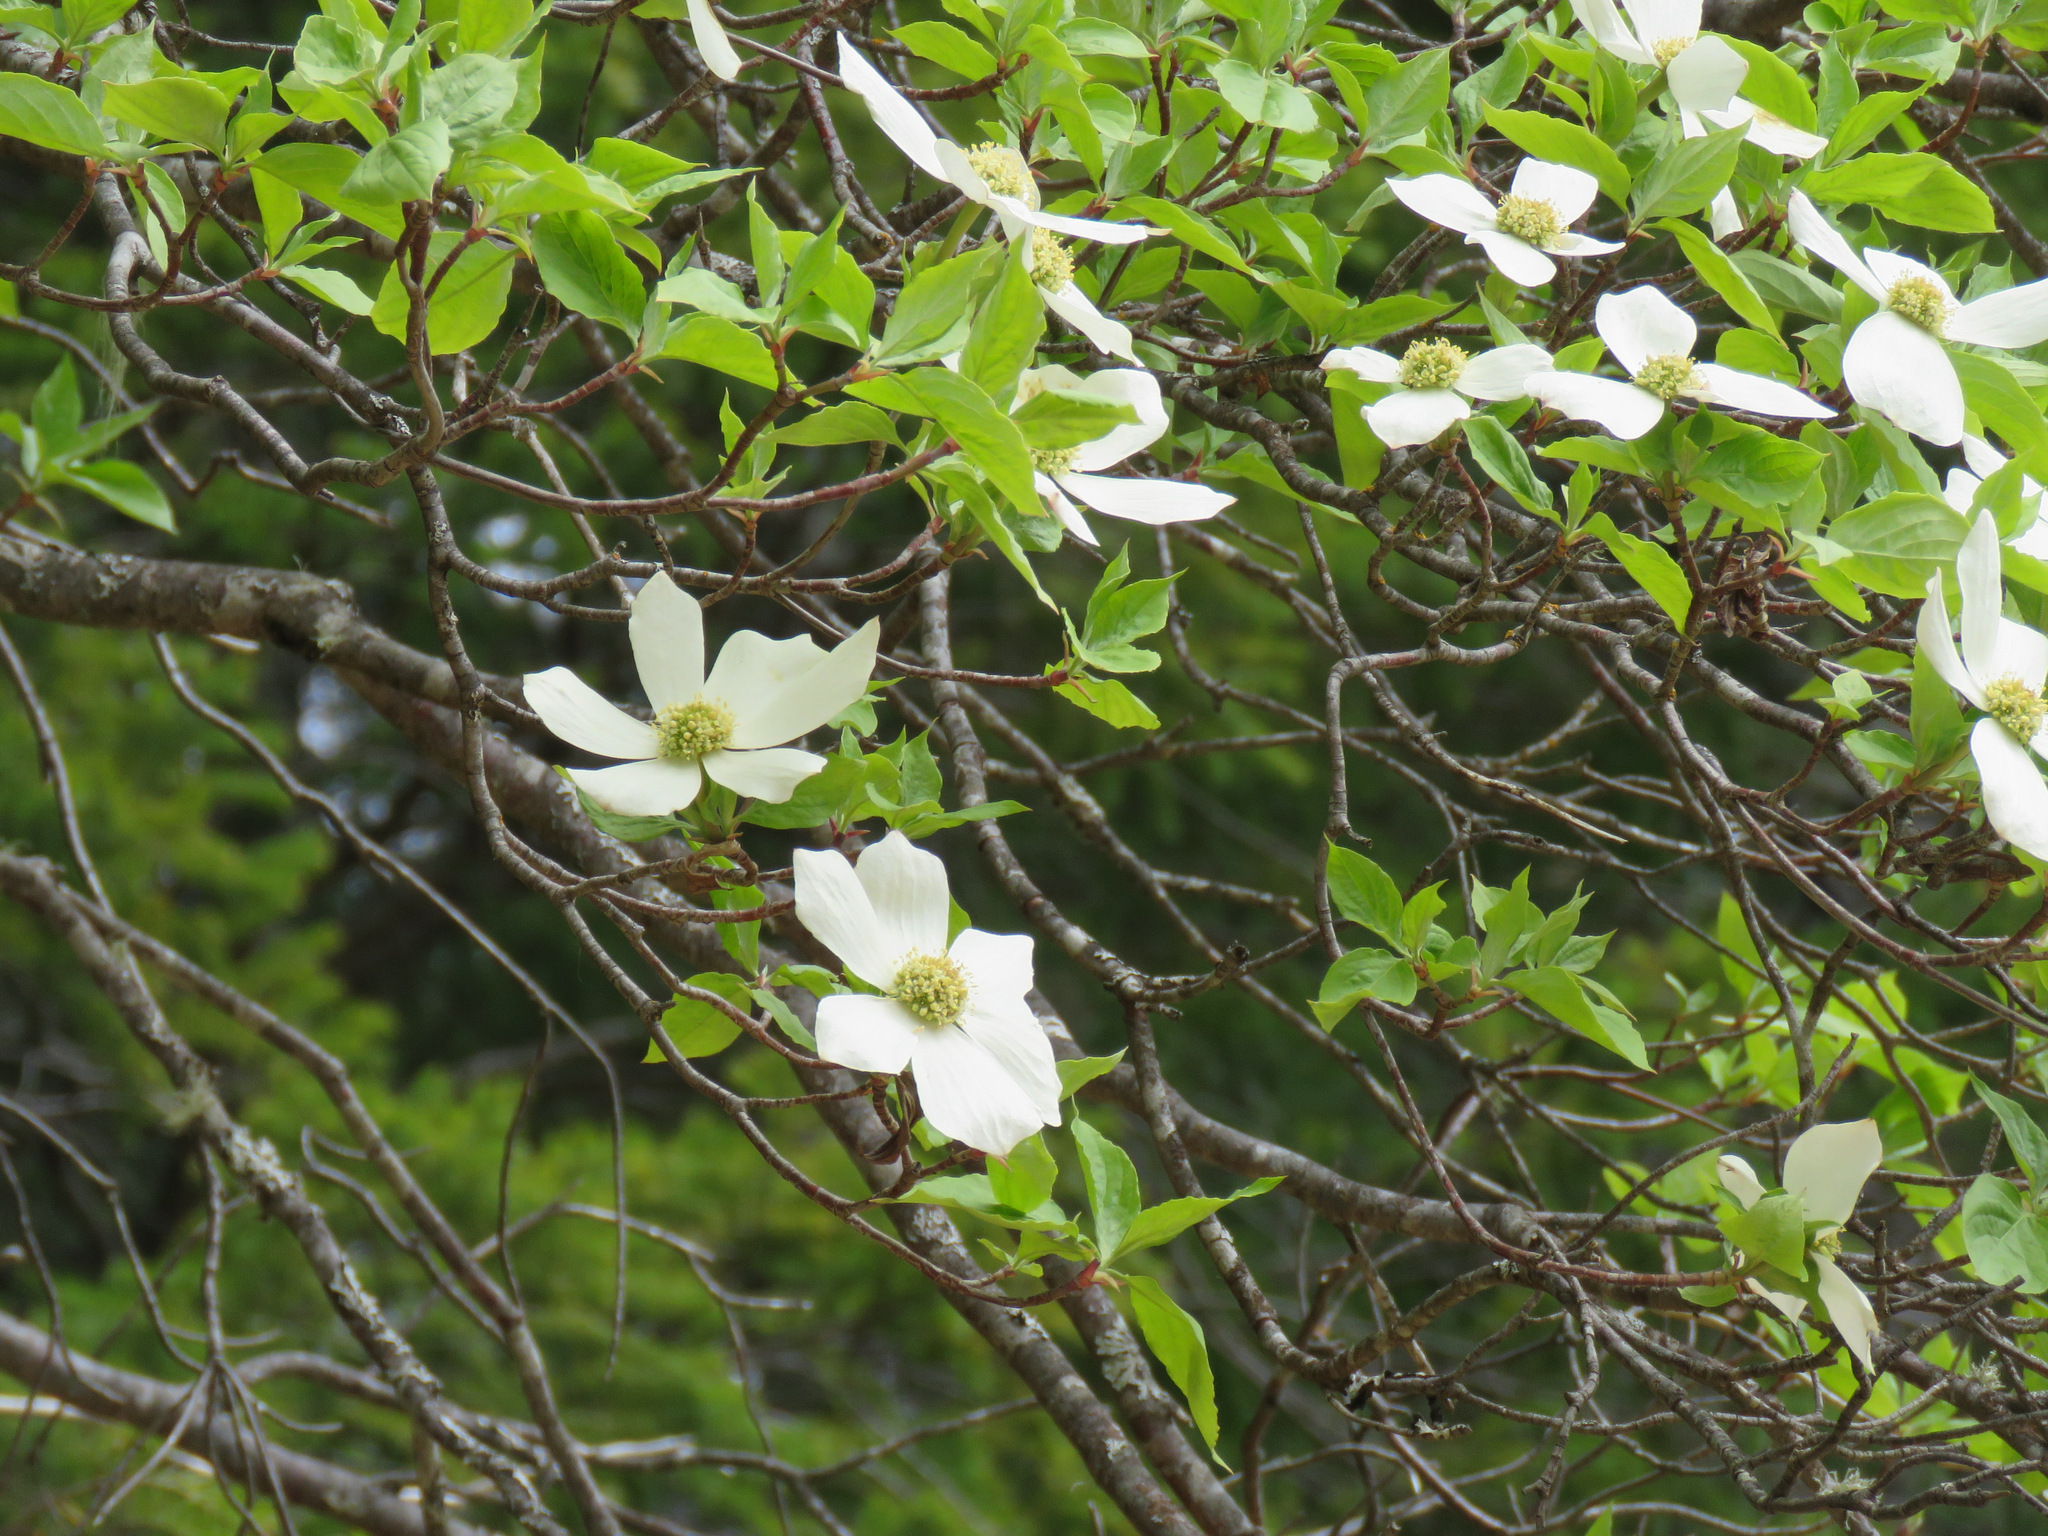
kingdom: Plantae
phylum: Tracheophyta
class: Magnoliopsida
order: Cornales
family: Cornaceae
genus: Cornus
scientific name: Cornus nuttallii
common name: Pacific dogwood
